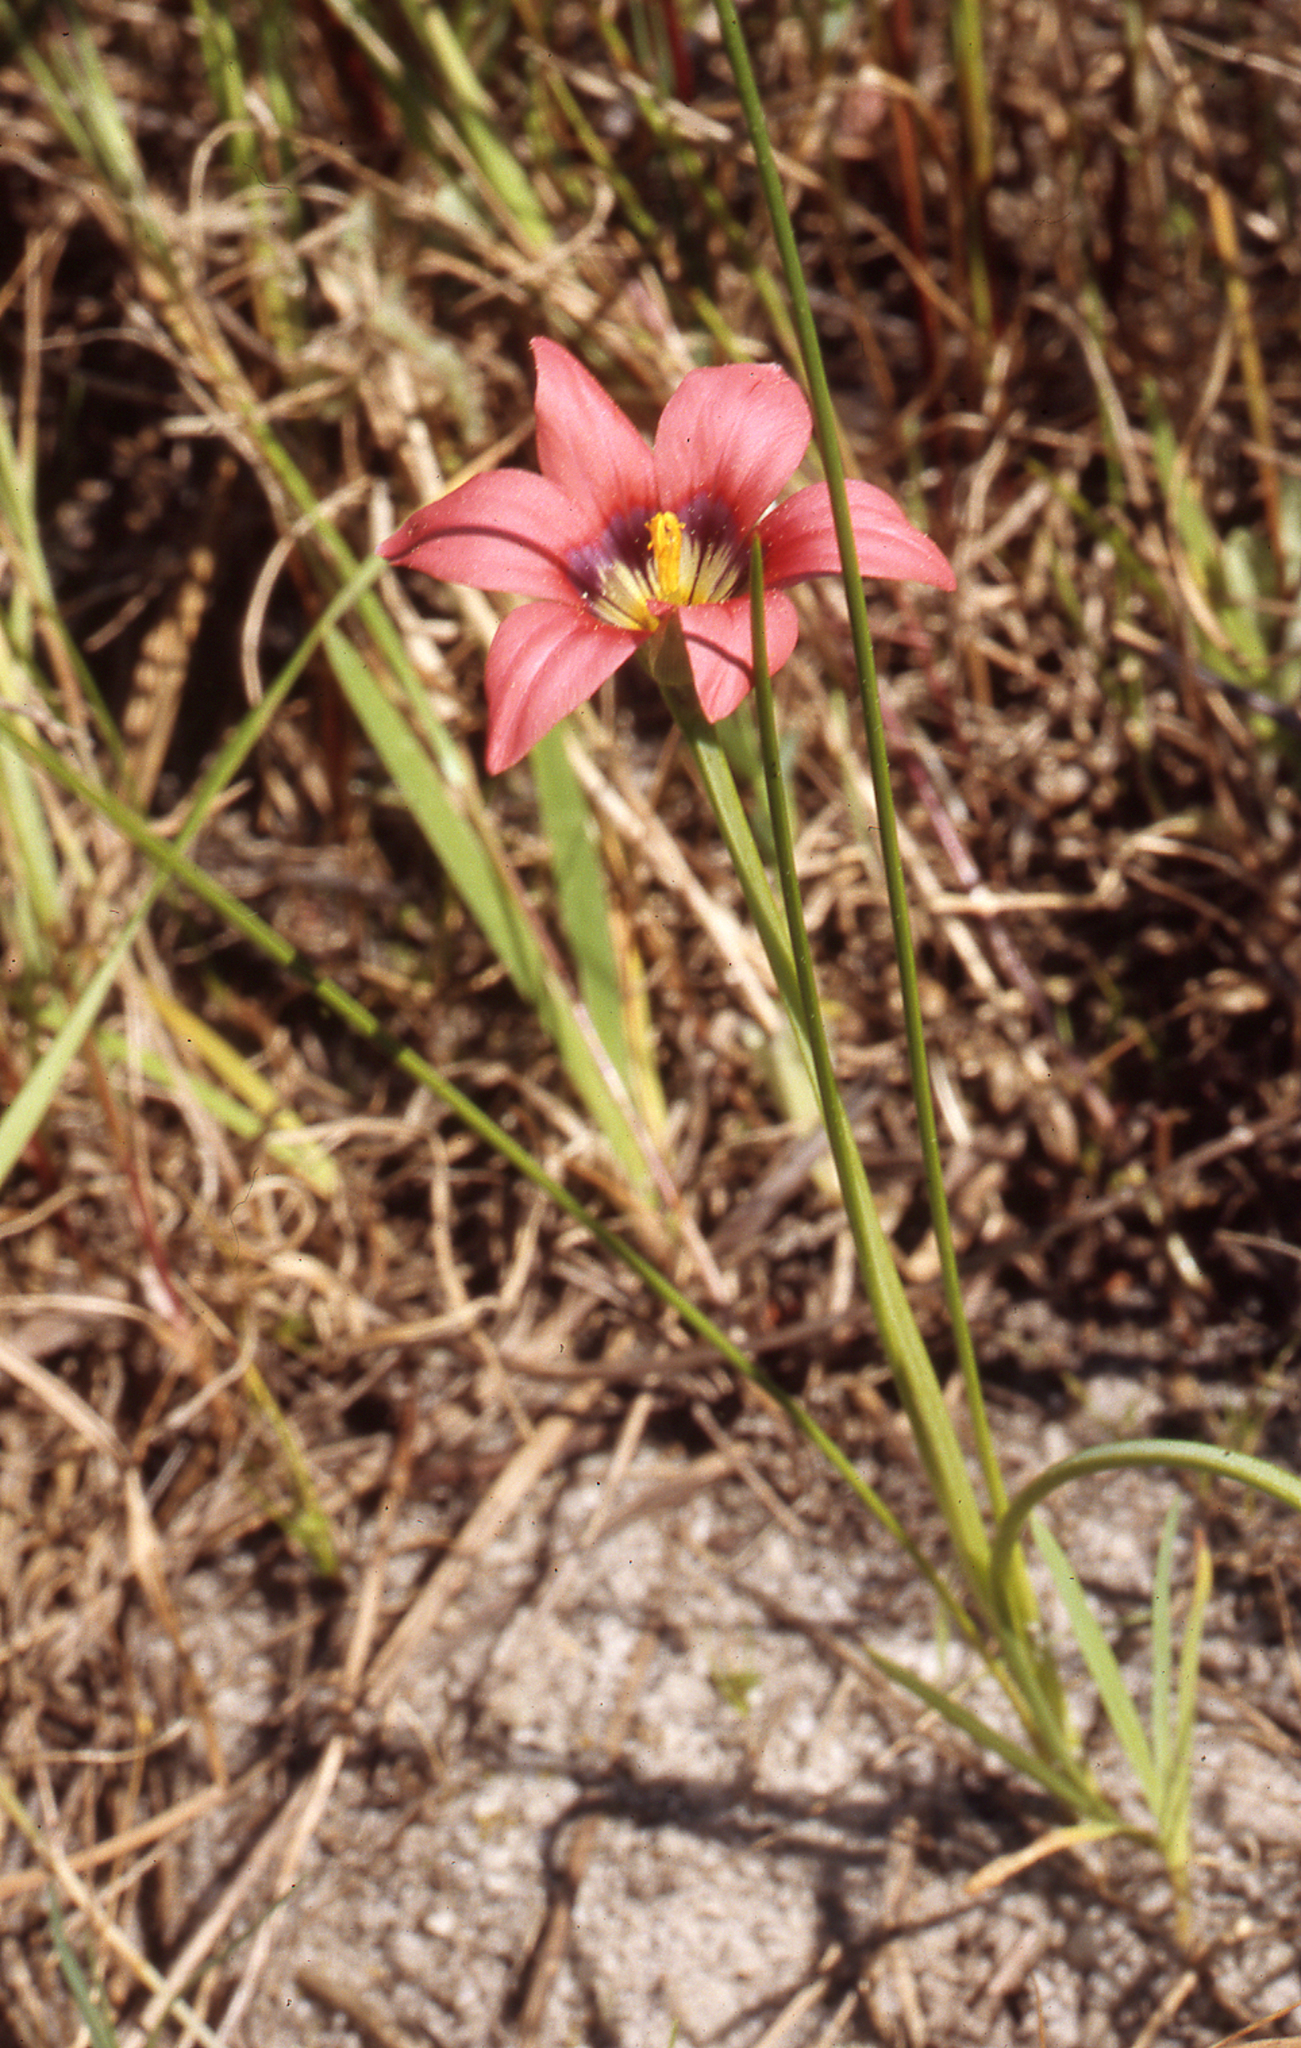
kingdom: Plantae
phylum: Tracheophyta
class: Liliopsida
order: Asparagales
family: Iridaceae
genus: Romulea
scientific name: Romulea obscura
